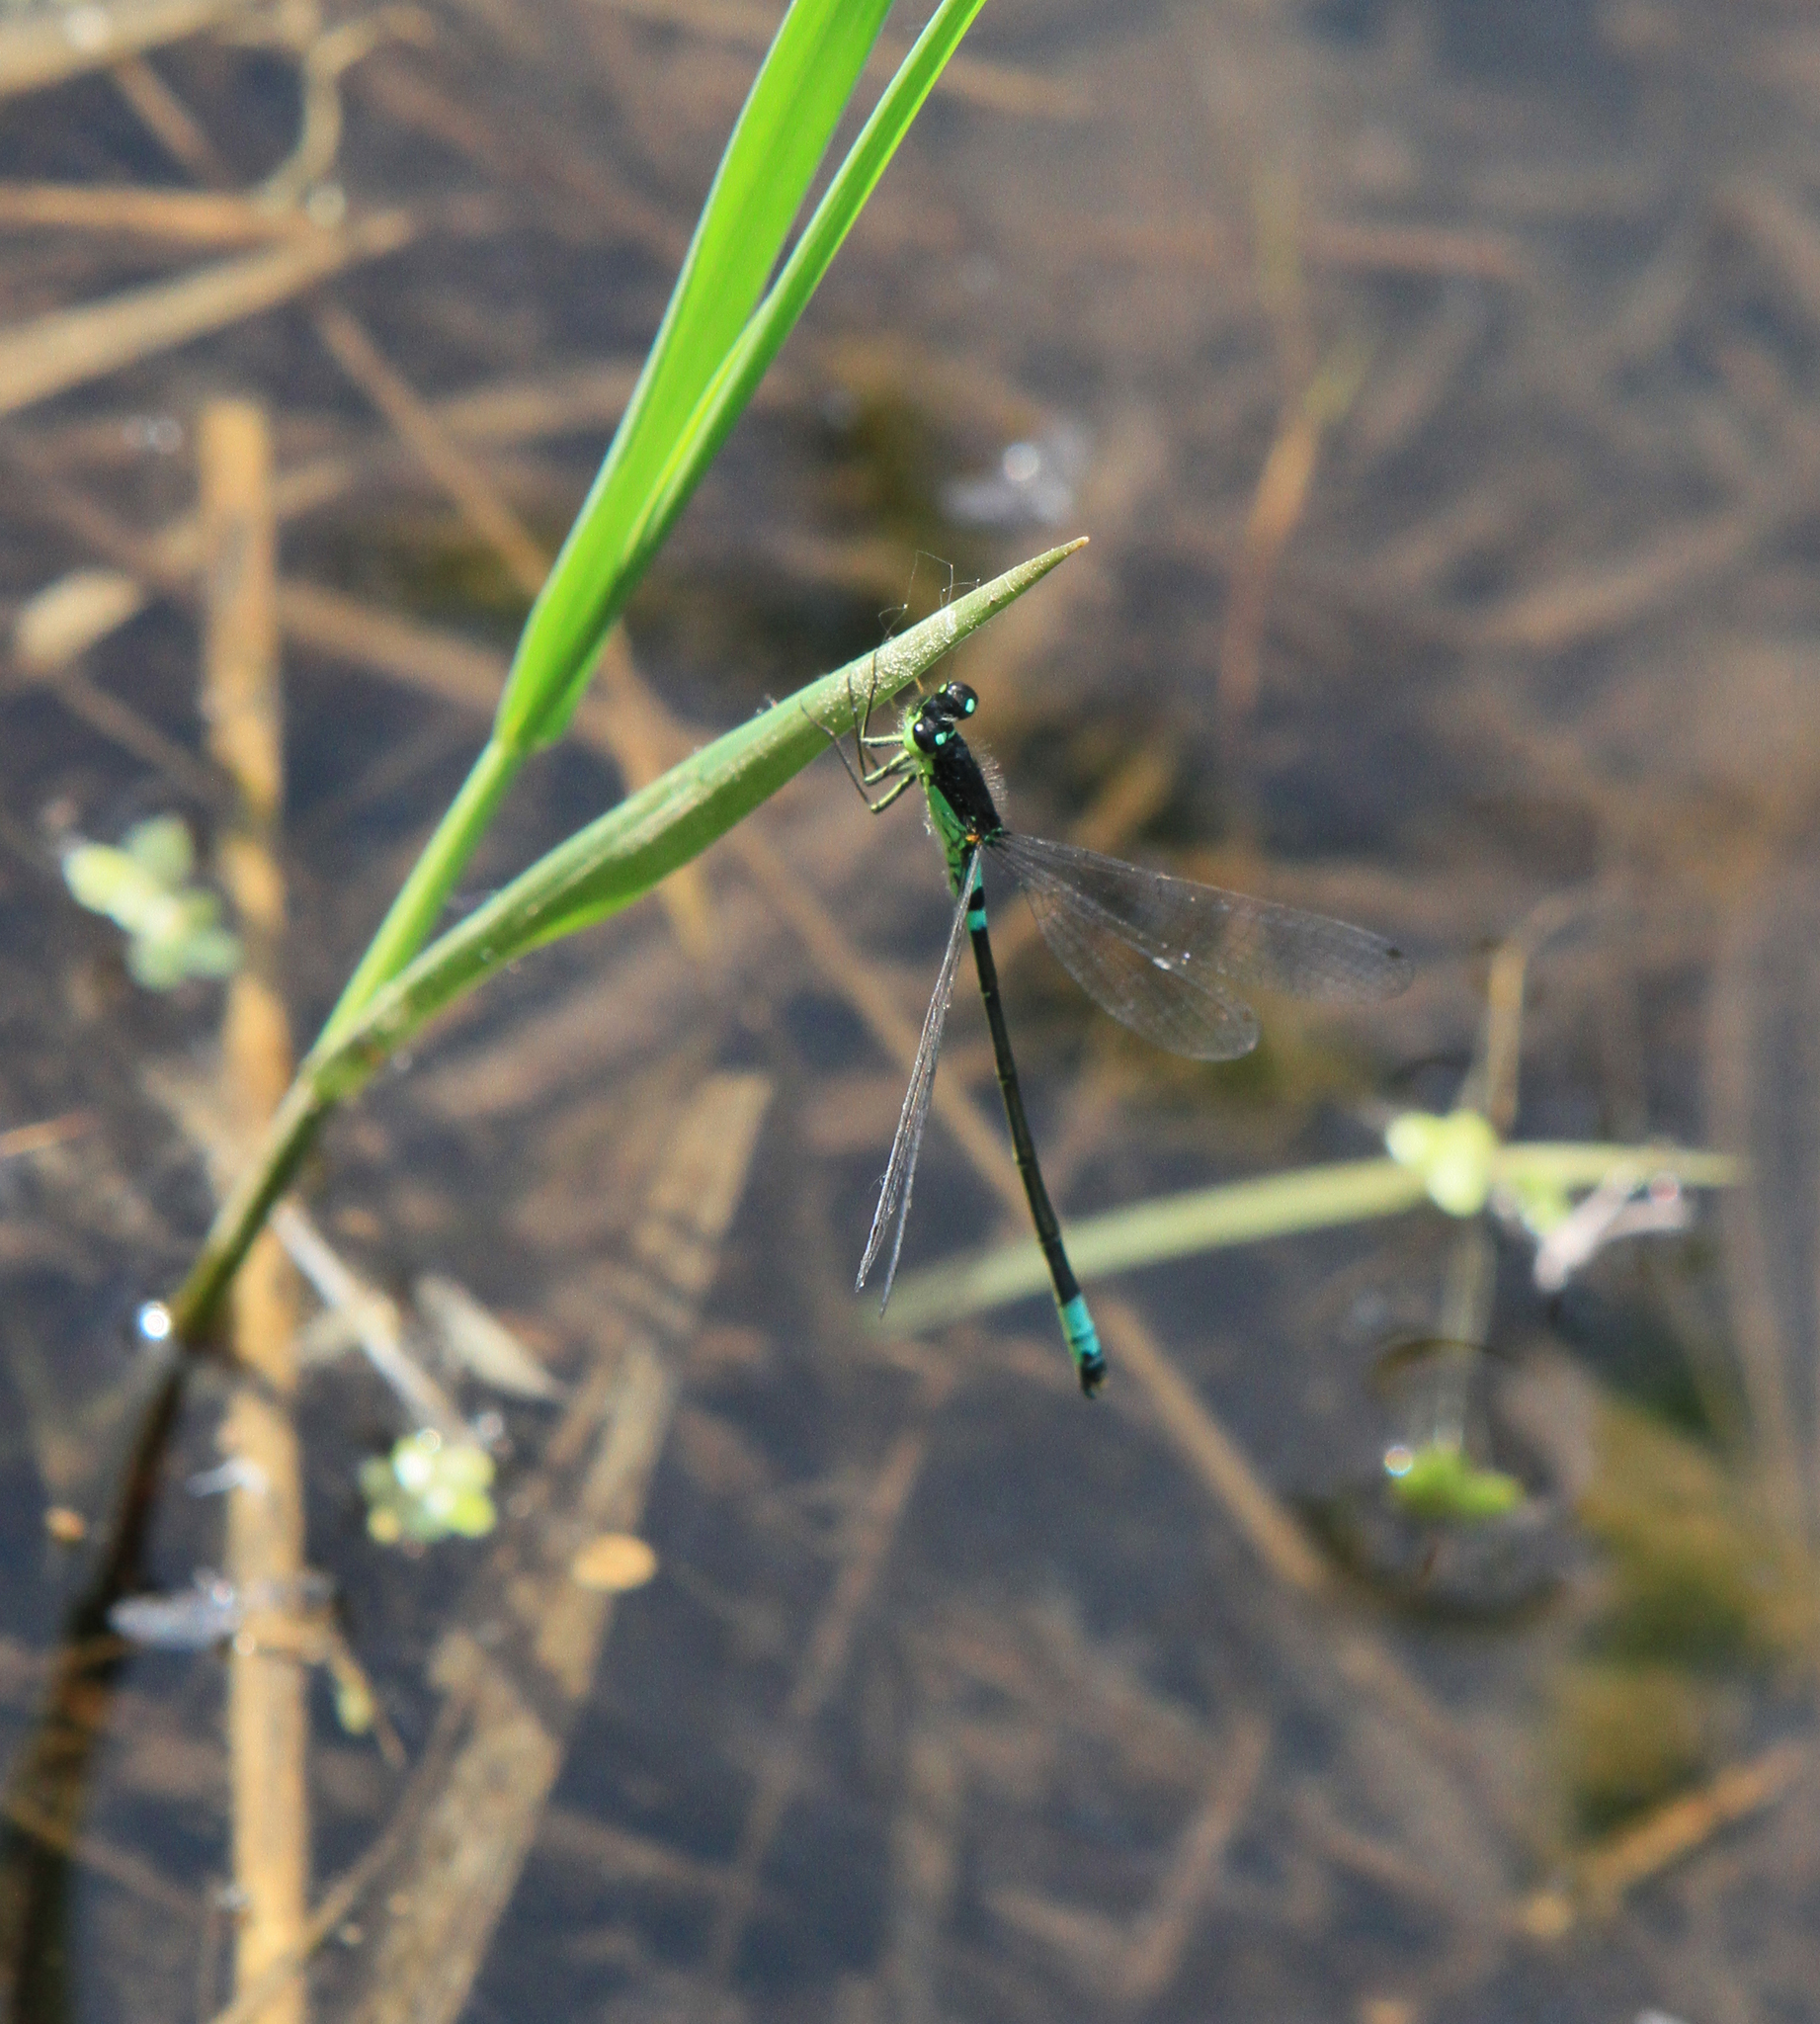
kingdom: Animalia
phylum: Arthropoda
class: Insecta
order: Odonata
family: Coenagrionidae
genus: Coenagrion
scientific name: Coenagrion armatum
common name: Dark bluet
